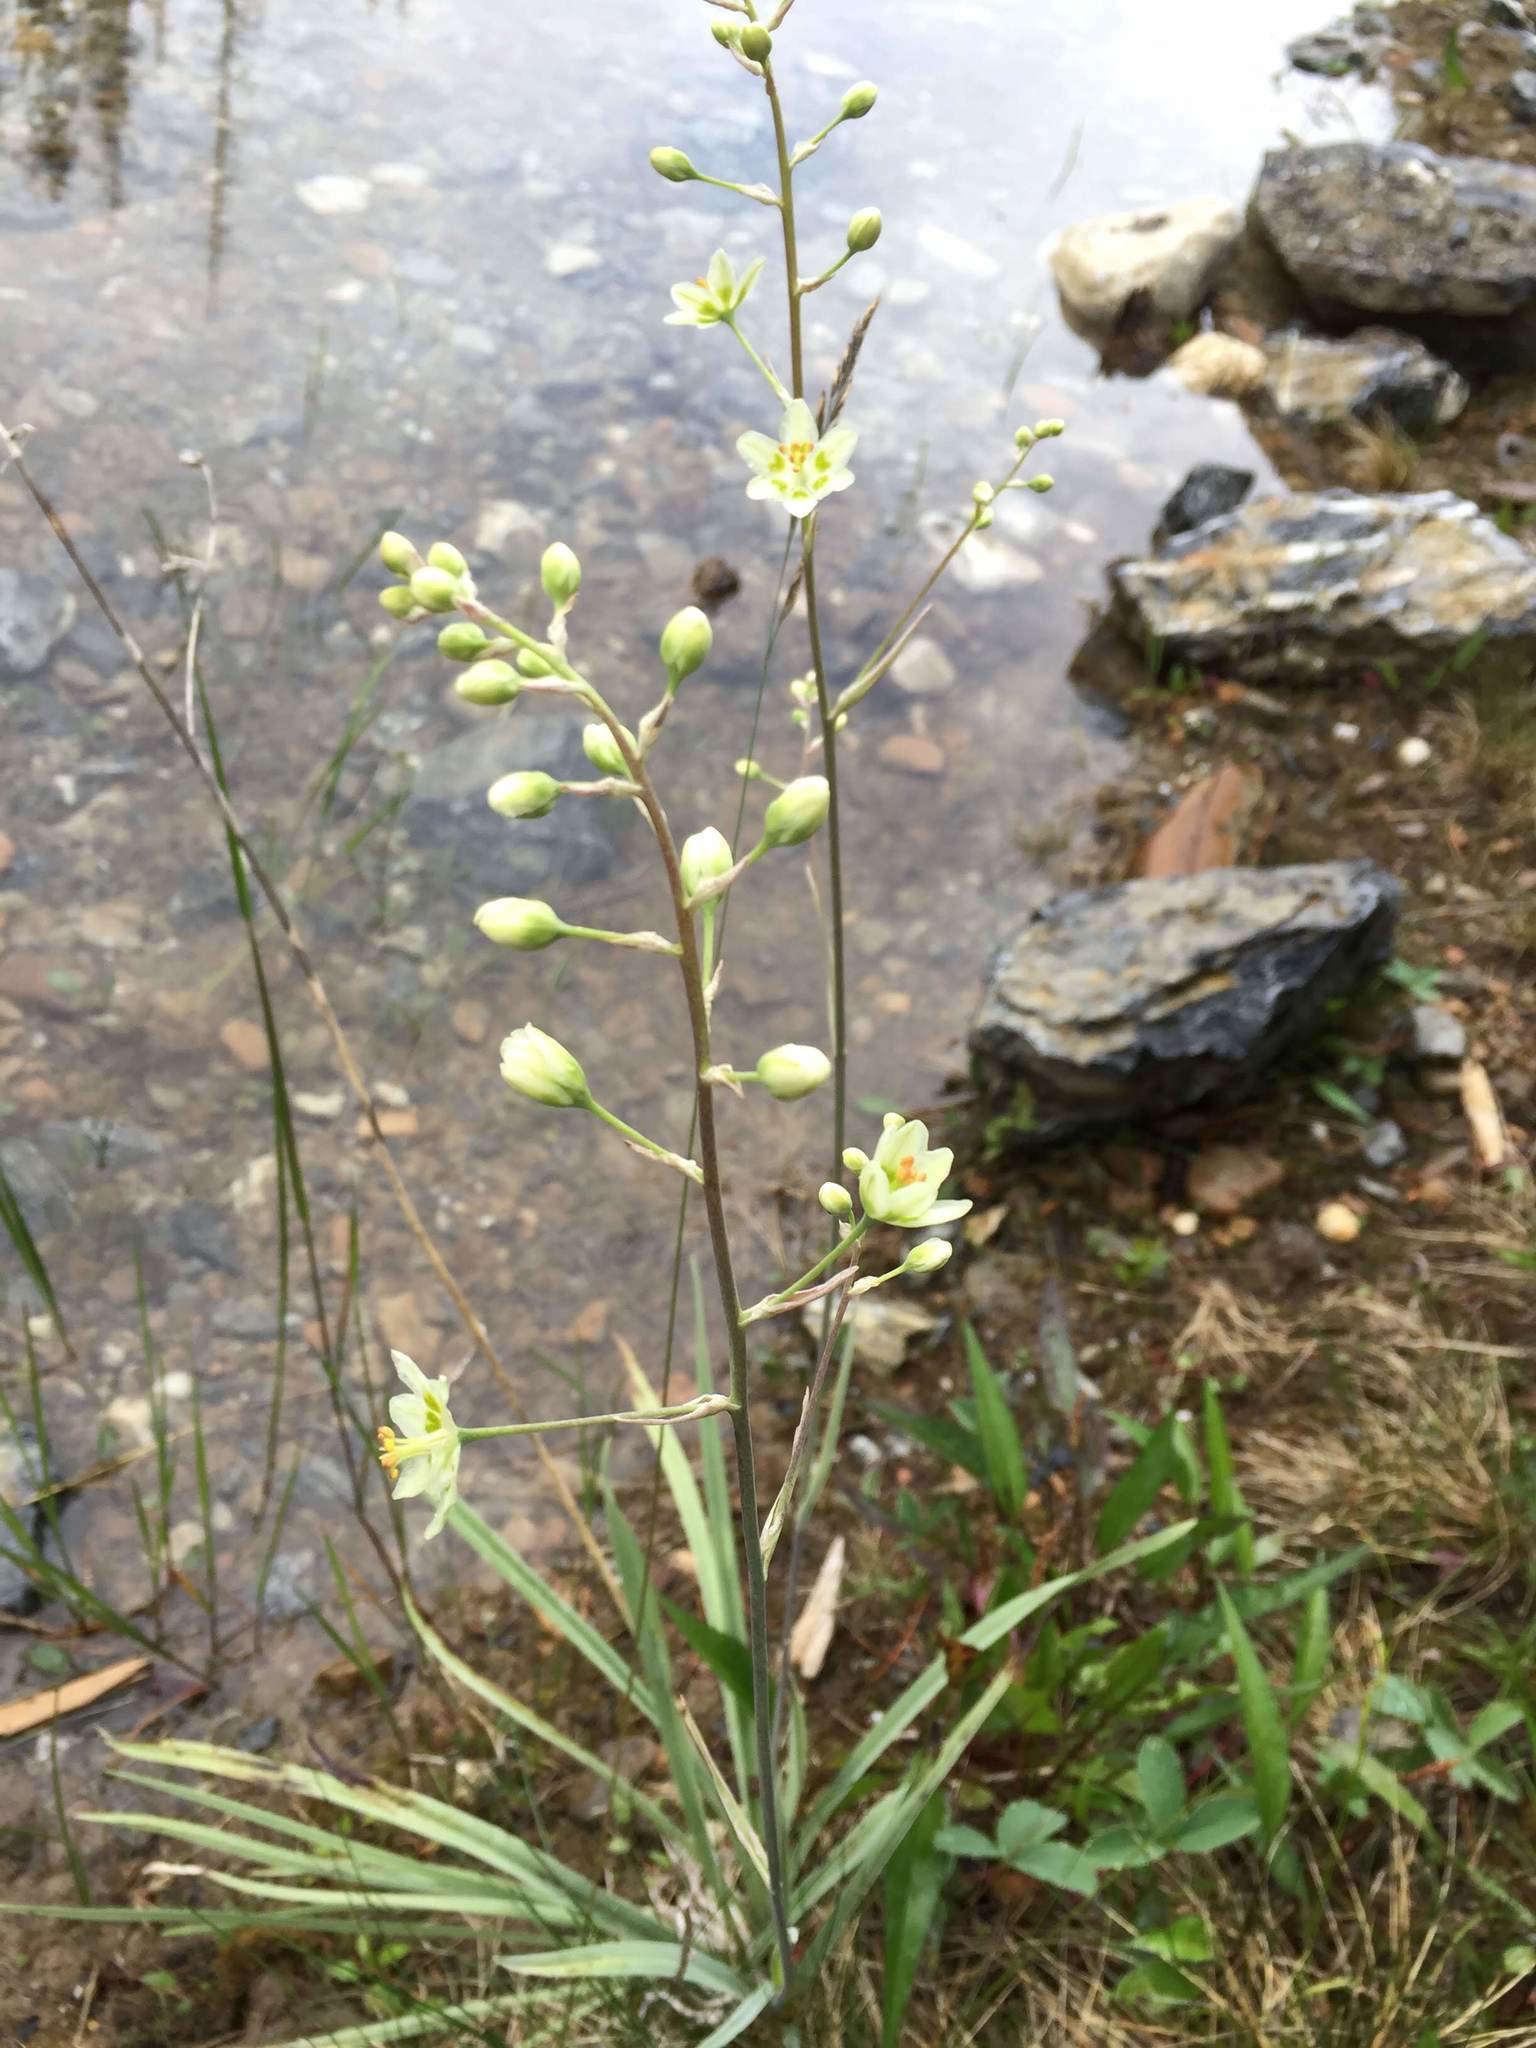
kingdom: Plantae
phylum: Tracheophyta
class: Liliopsida
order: Liliales
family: Melanthiaceae
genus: Anticlea
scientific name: Anticlea elegans
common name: Mountain death camas
